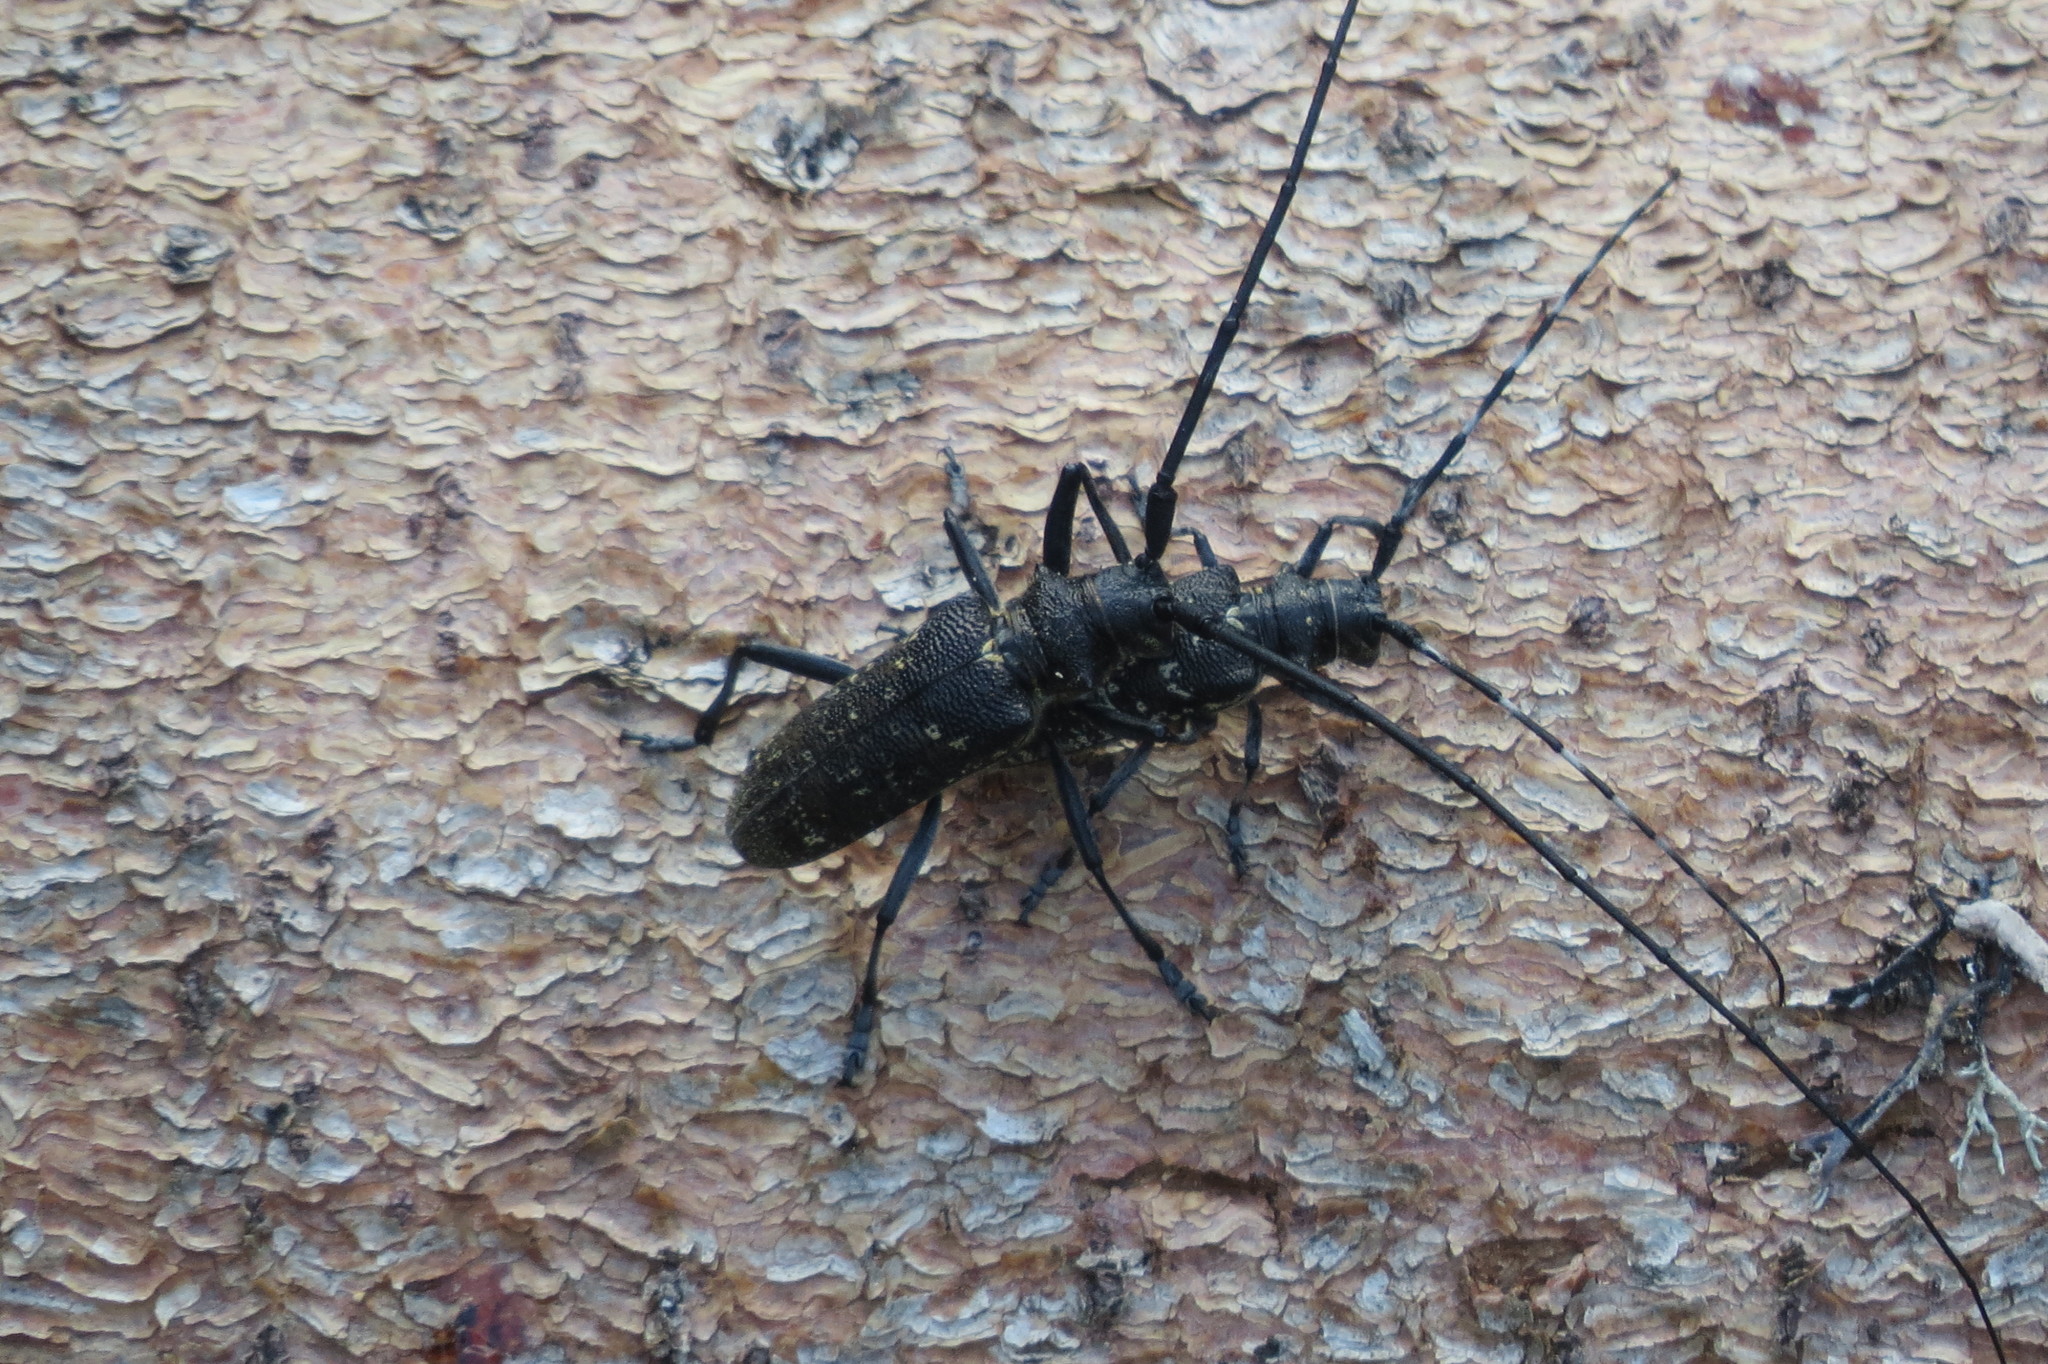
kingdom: Animalia
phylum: Arthropoda
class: Insecta
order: Coleoptera
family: Cerambycidae
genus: Monochamus
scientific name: Monochamus sutor
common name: Pine sawyer
